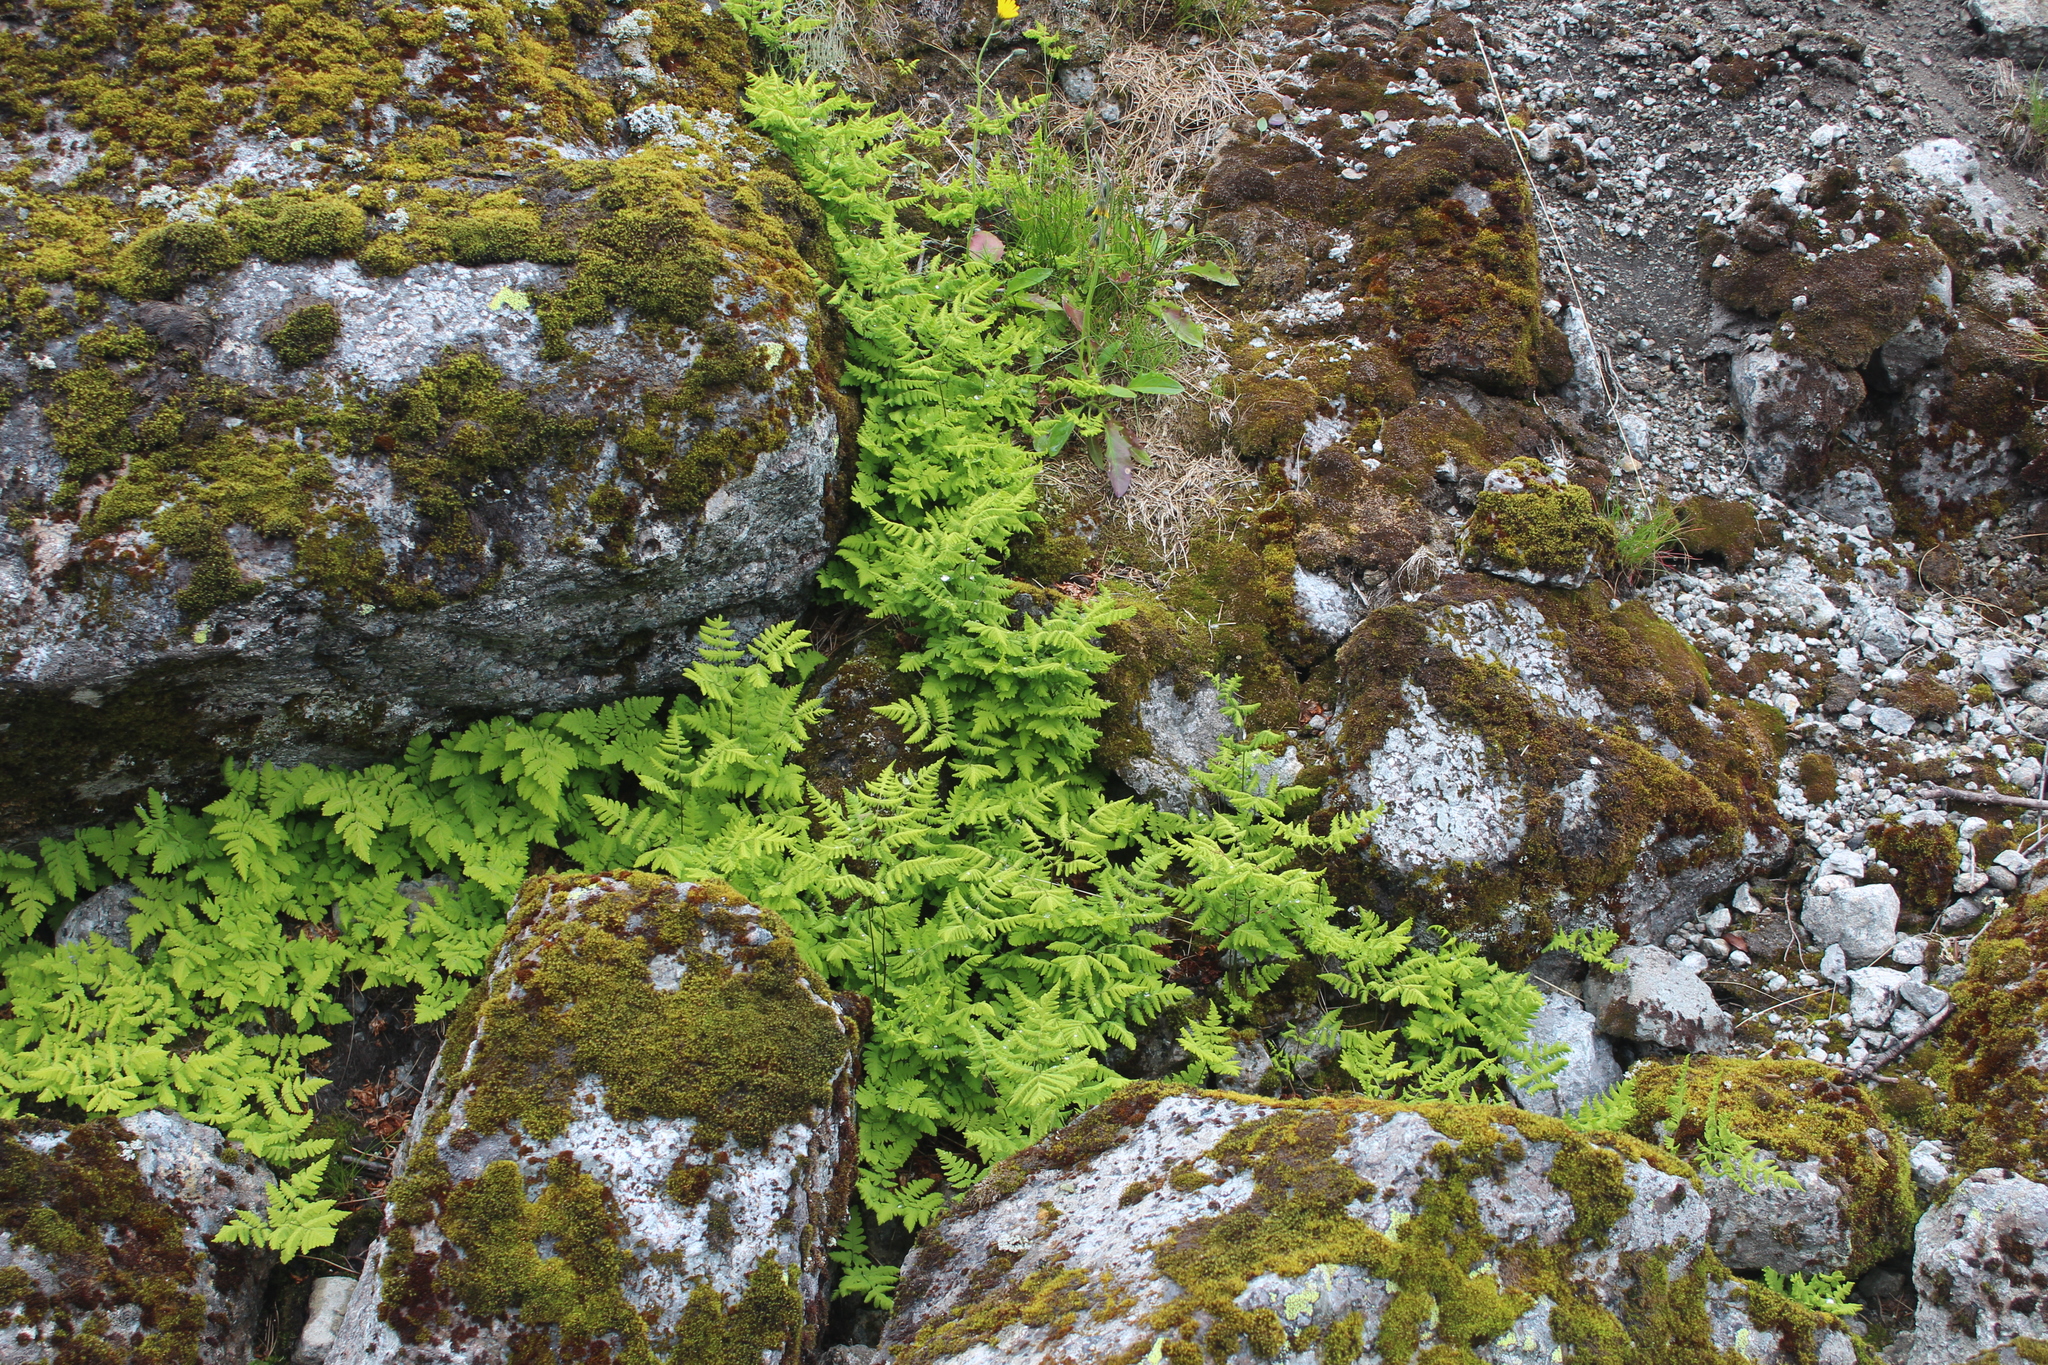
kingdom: Plantae
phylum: Tracheophyta
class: Polypodiopsida
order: Polypodiales
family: Cystopteridaceae
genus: Gymnocarpium
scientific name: Gymnocarpium dryopteris
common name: Oak fern
